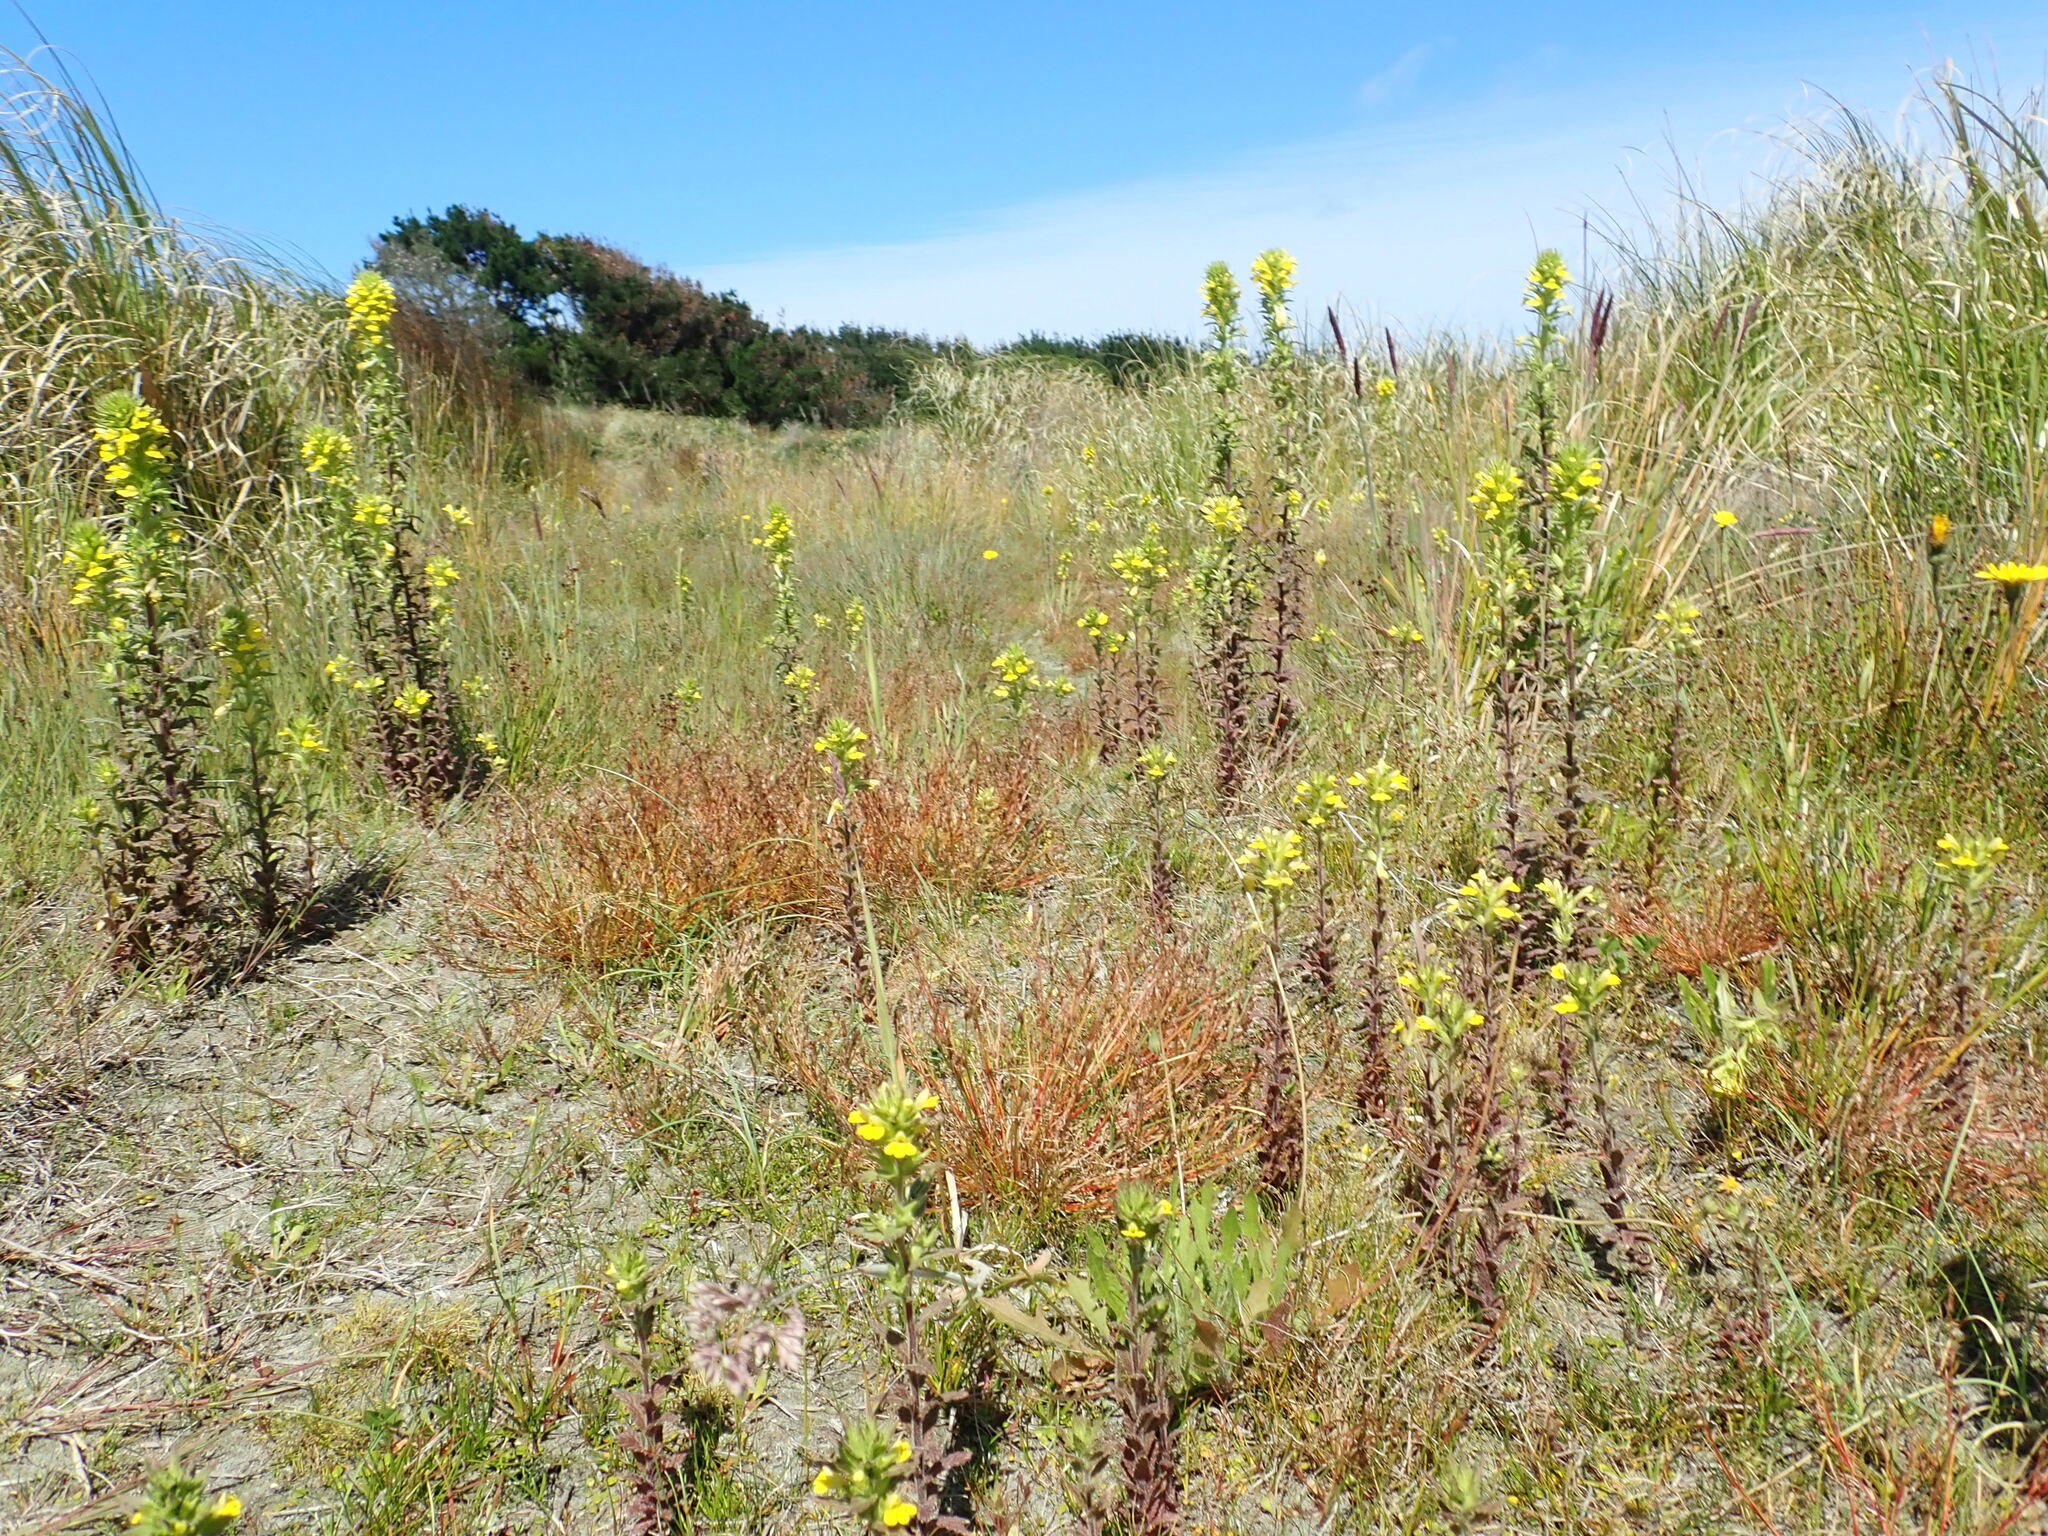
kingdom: Plantae
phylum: Tracheophyta
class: Magnoliopsida
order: Lamiales
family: Orobanchaceae
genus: Bellardia
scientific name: Bellardia viscosa
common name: Sticky parentucellia
